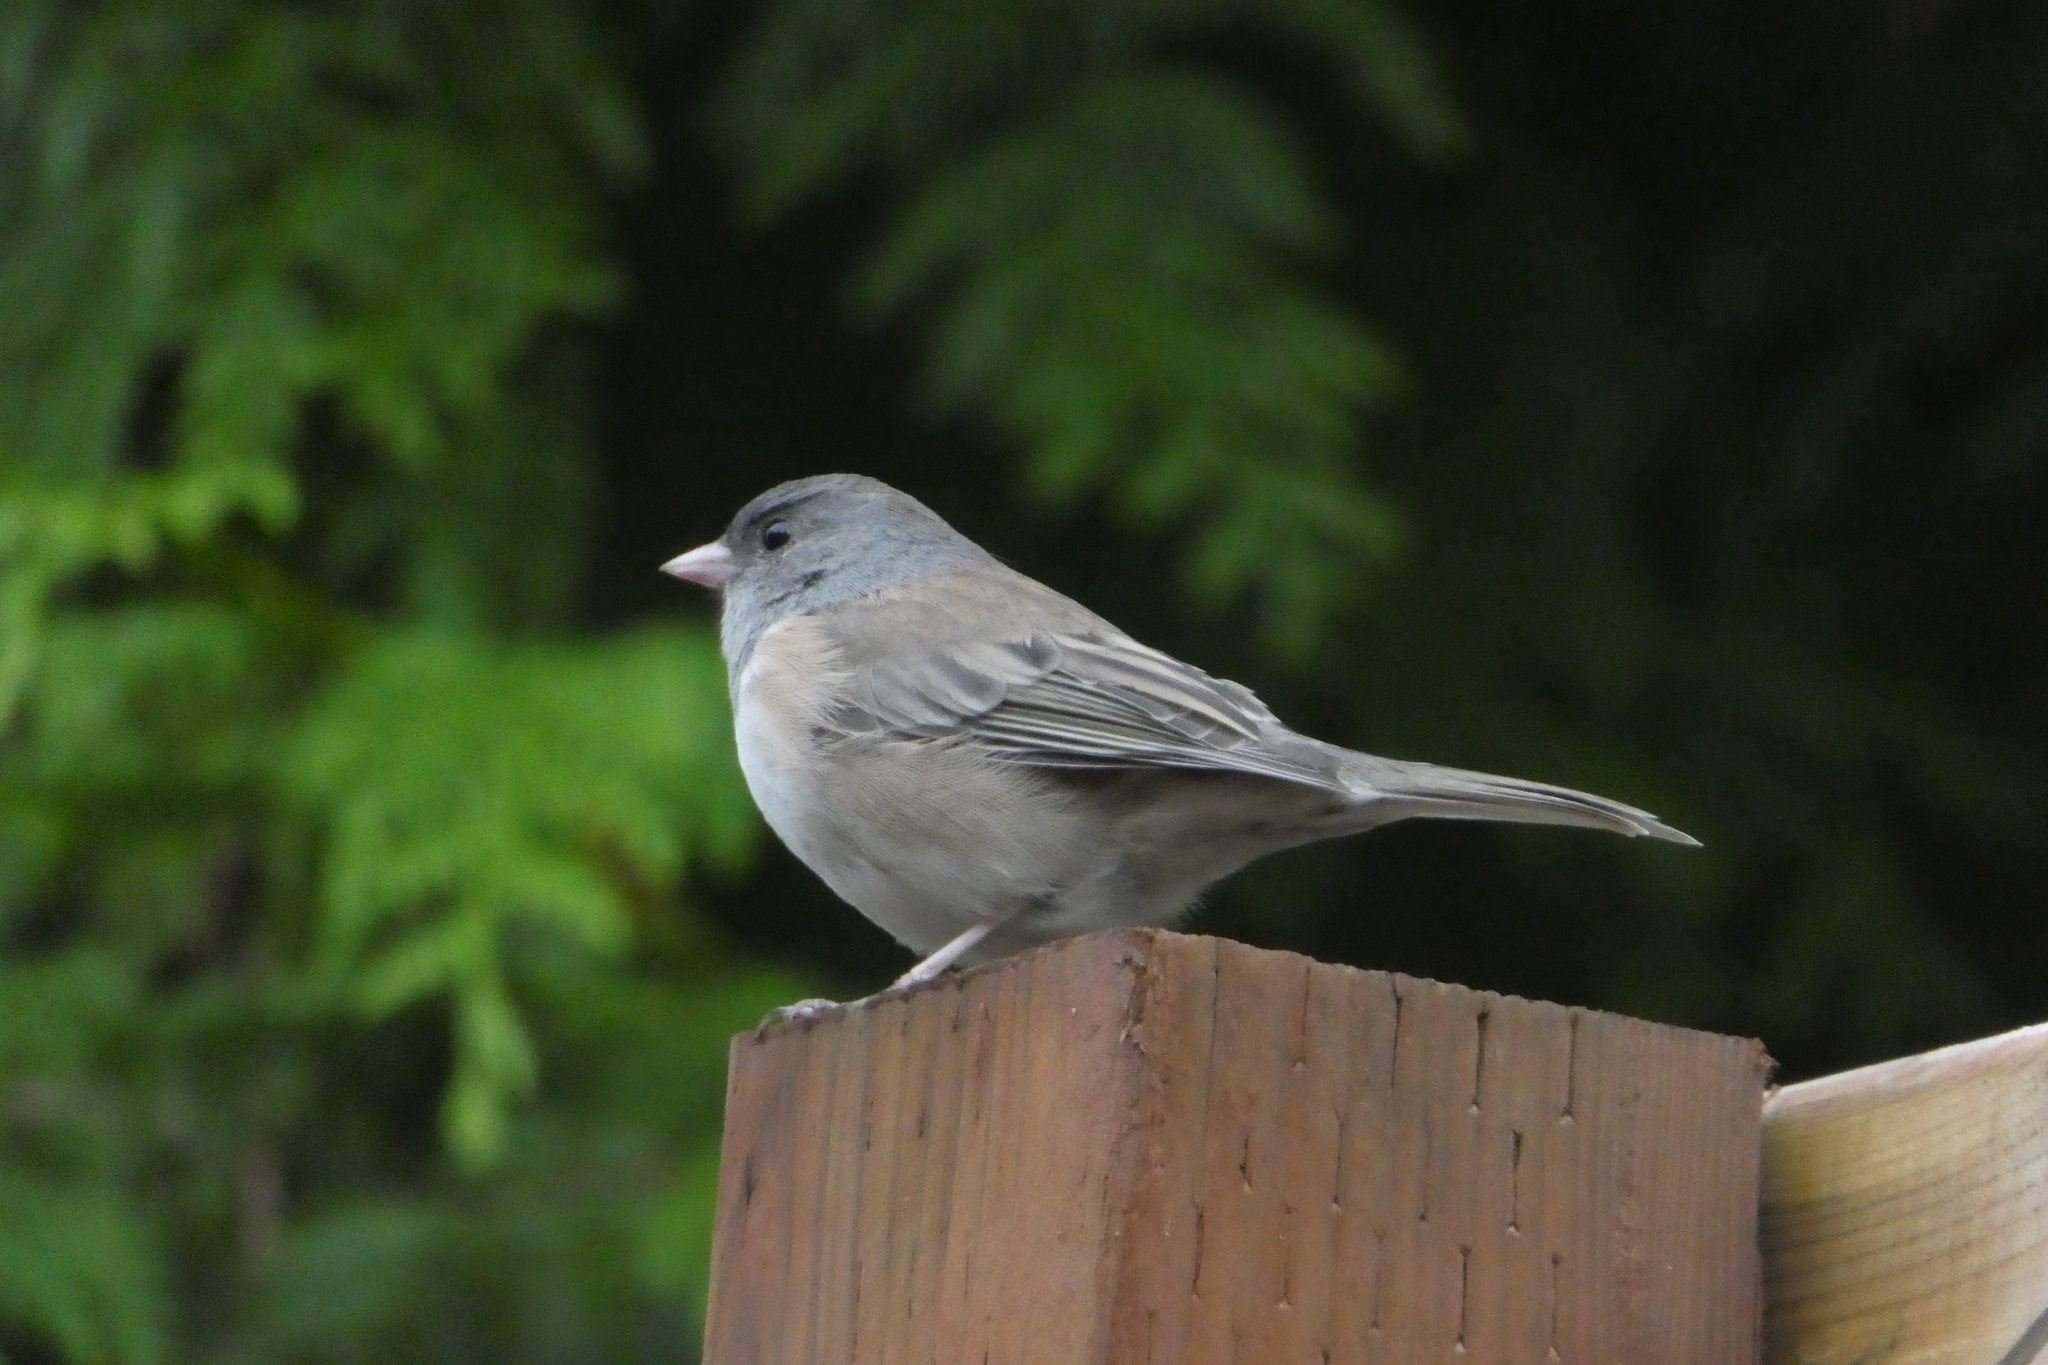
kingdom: Animalia
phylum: Chordata
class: Aves
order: Passeriformes
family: Passerellidae
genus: Junco
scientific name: Junco hyemalis
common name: Dark-eyed junco
